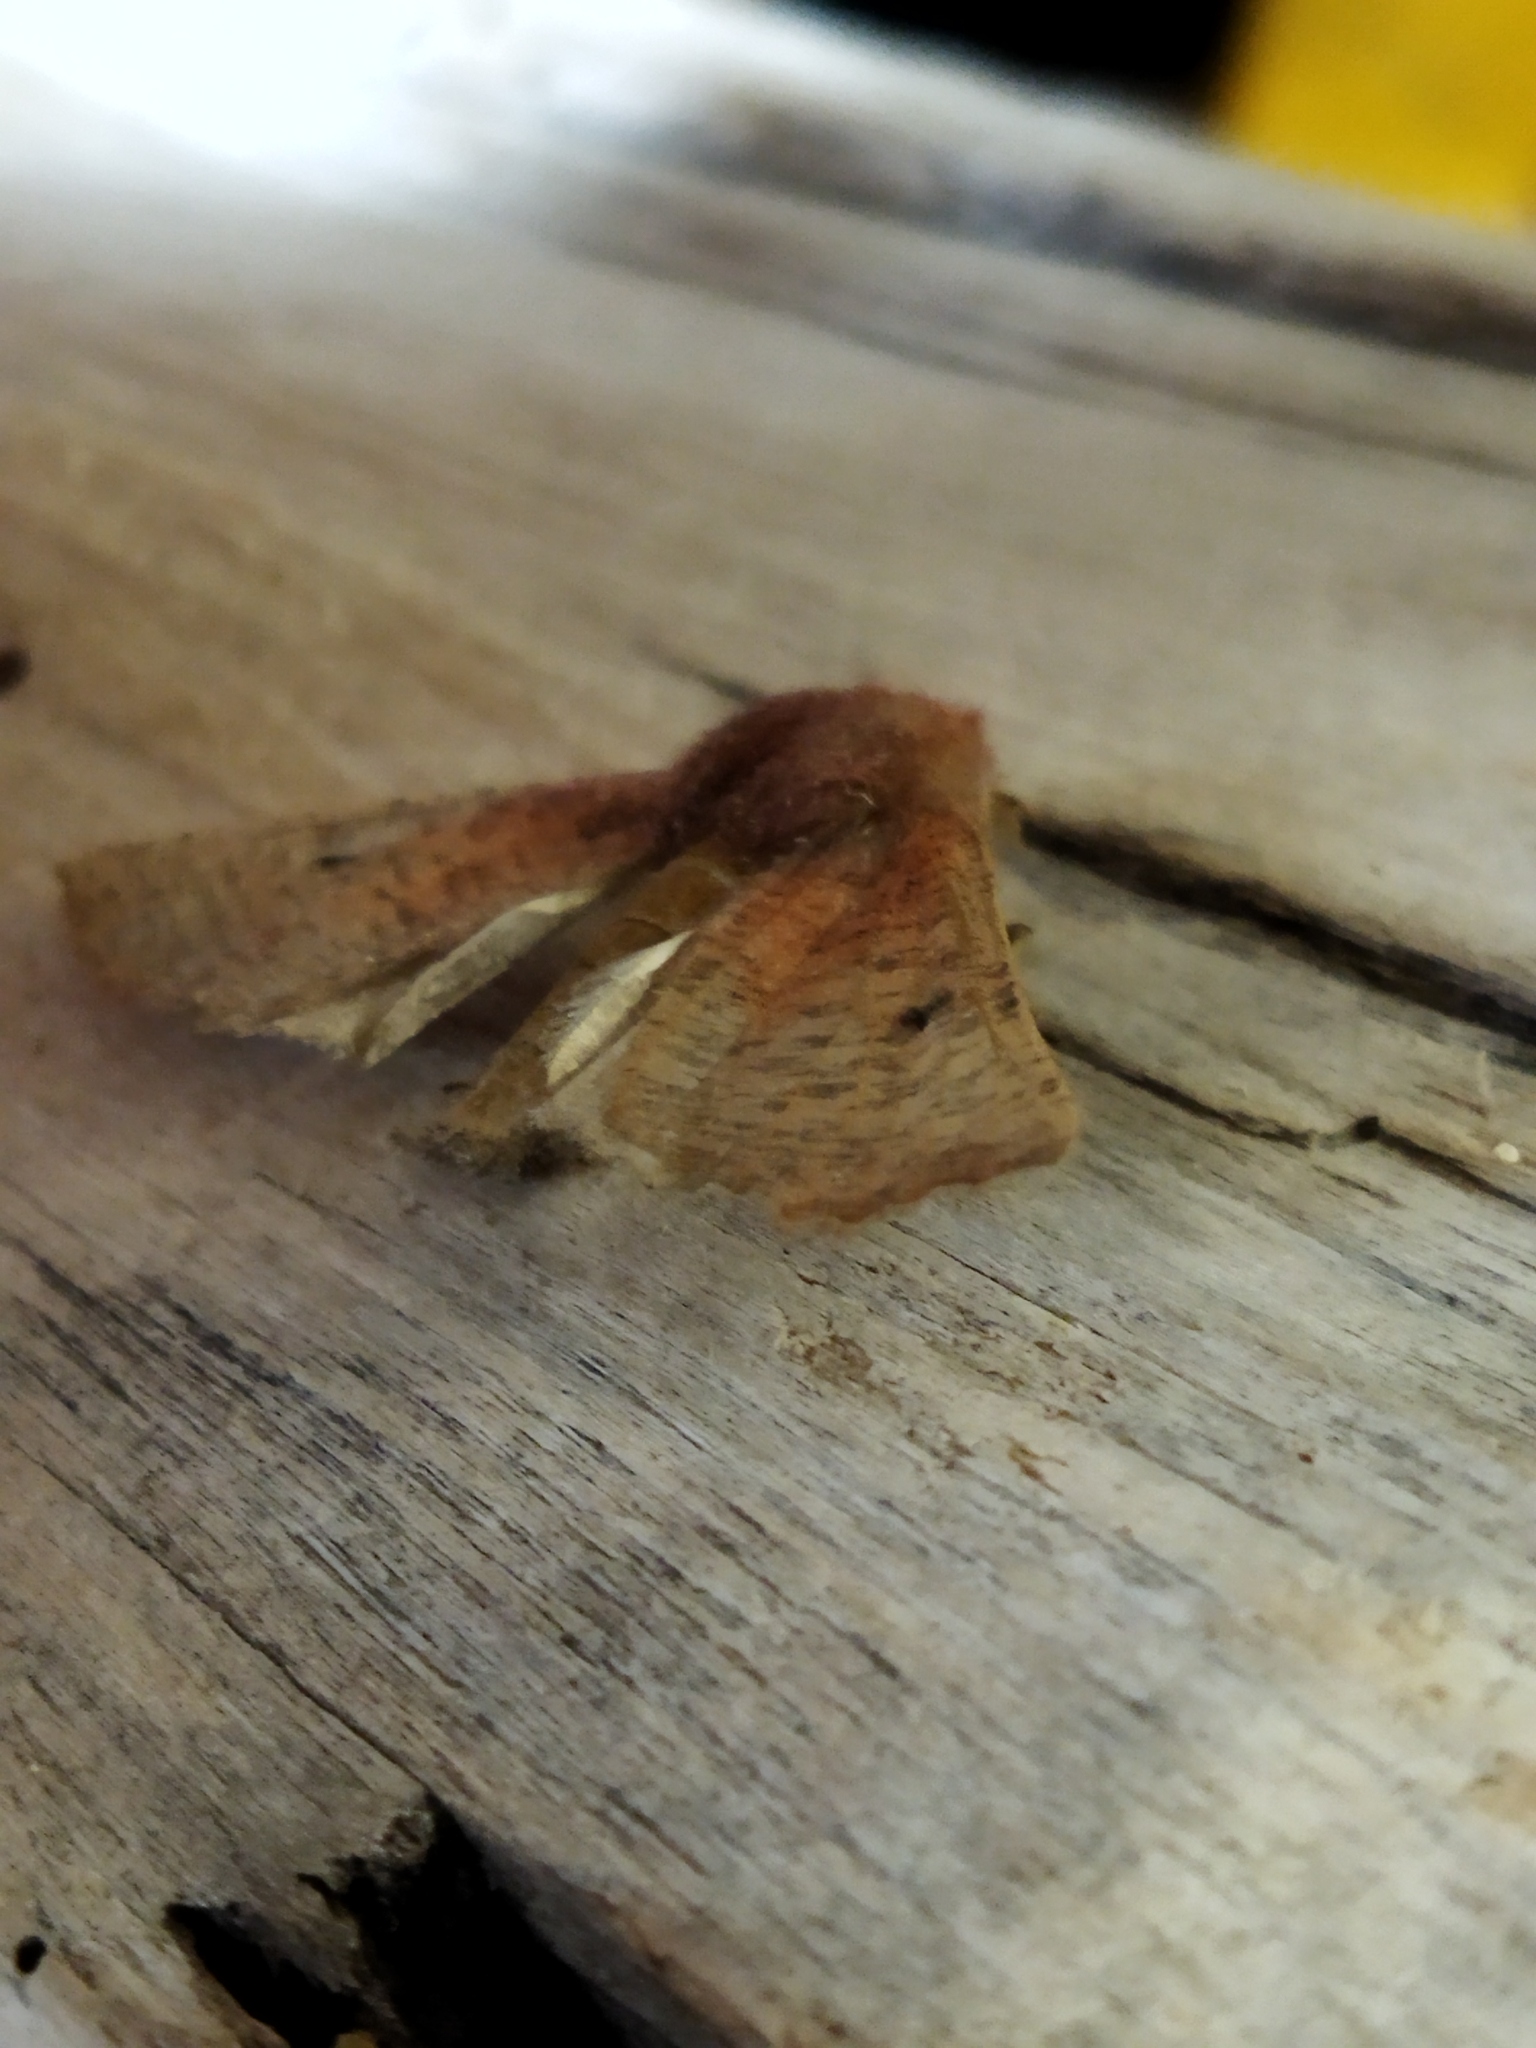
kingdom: Animalia
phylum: Arthropoda
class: Insecta
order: Lepidoptera
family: Geometridae
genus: Dasycorsa
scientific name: Dasycorsa modesta
